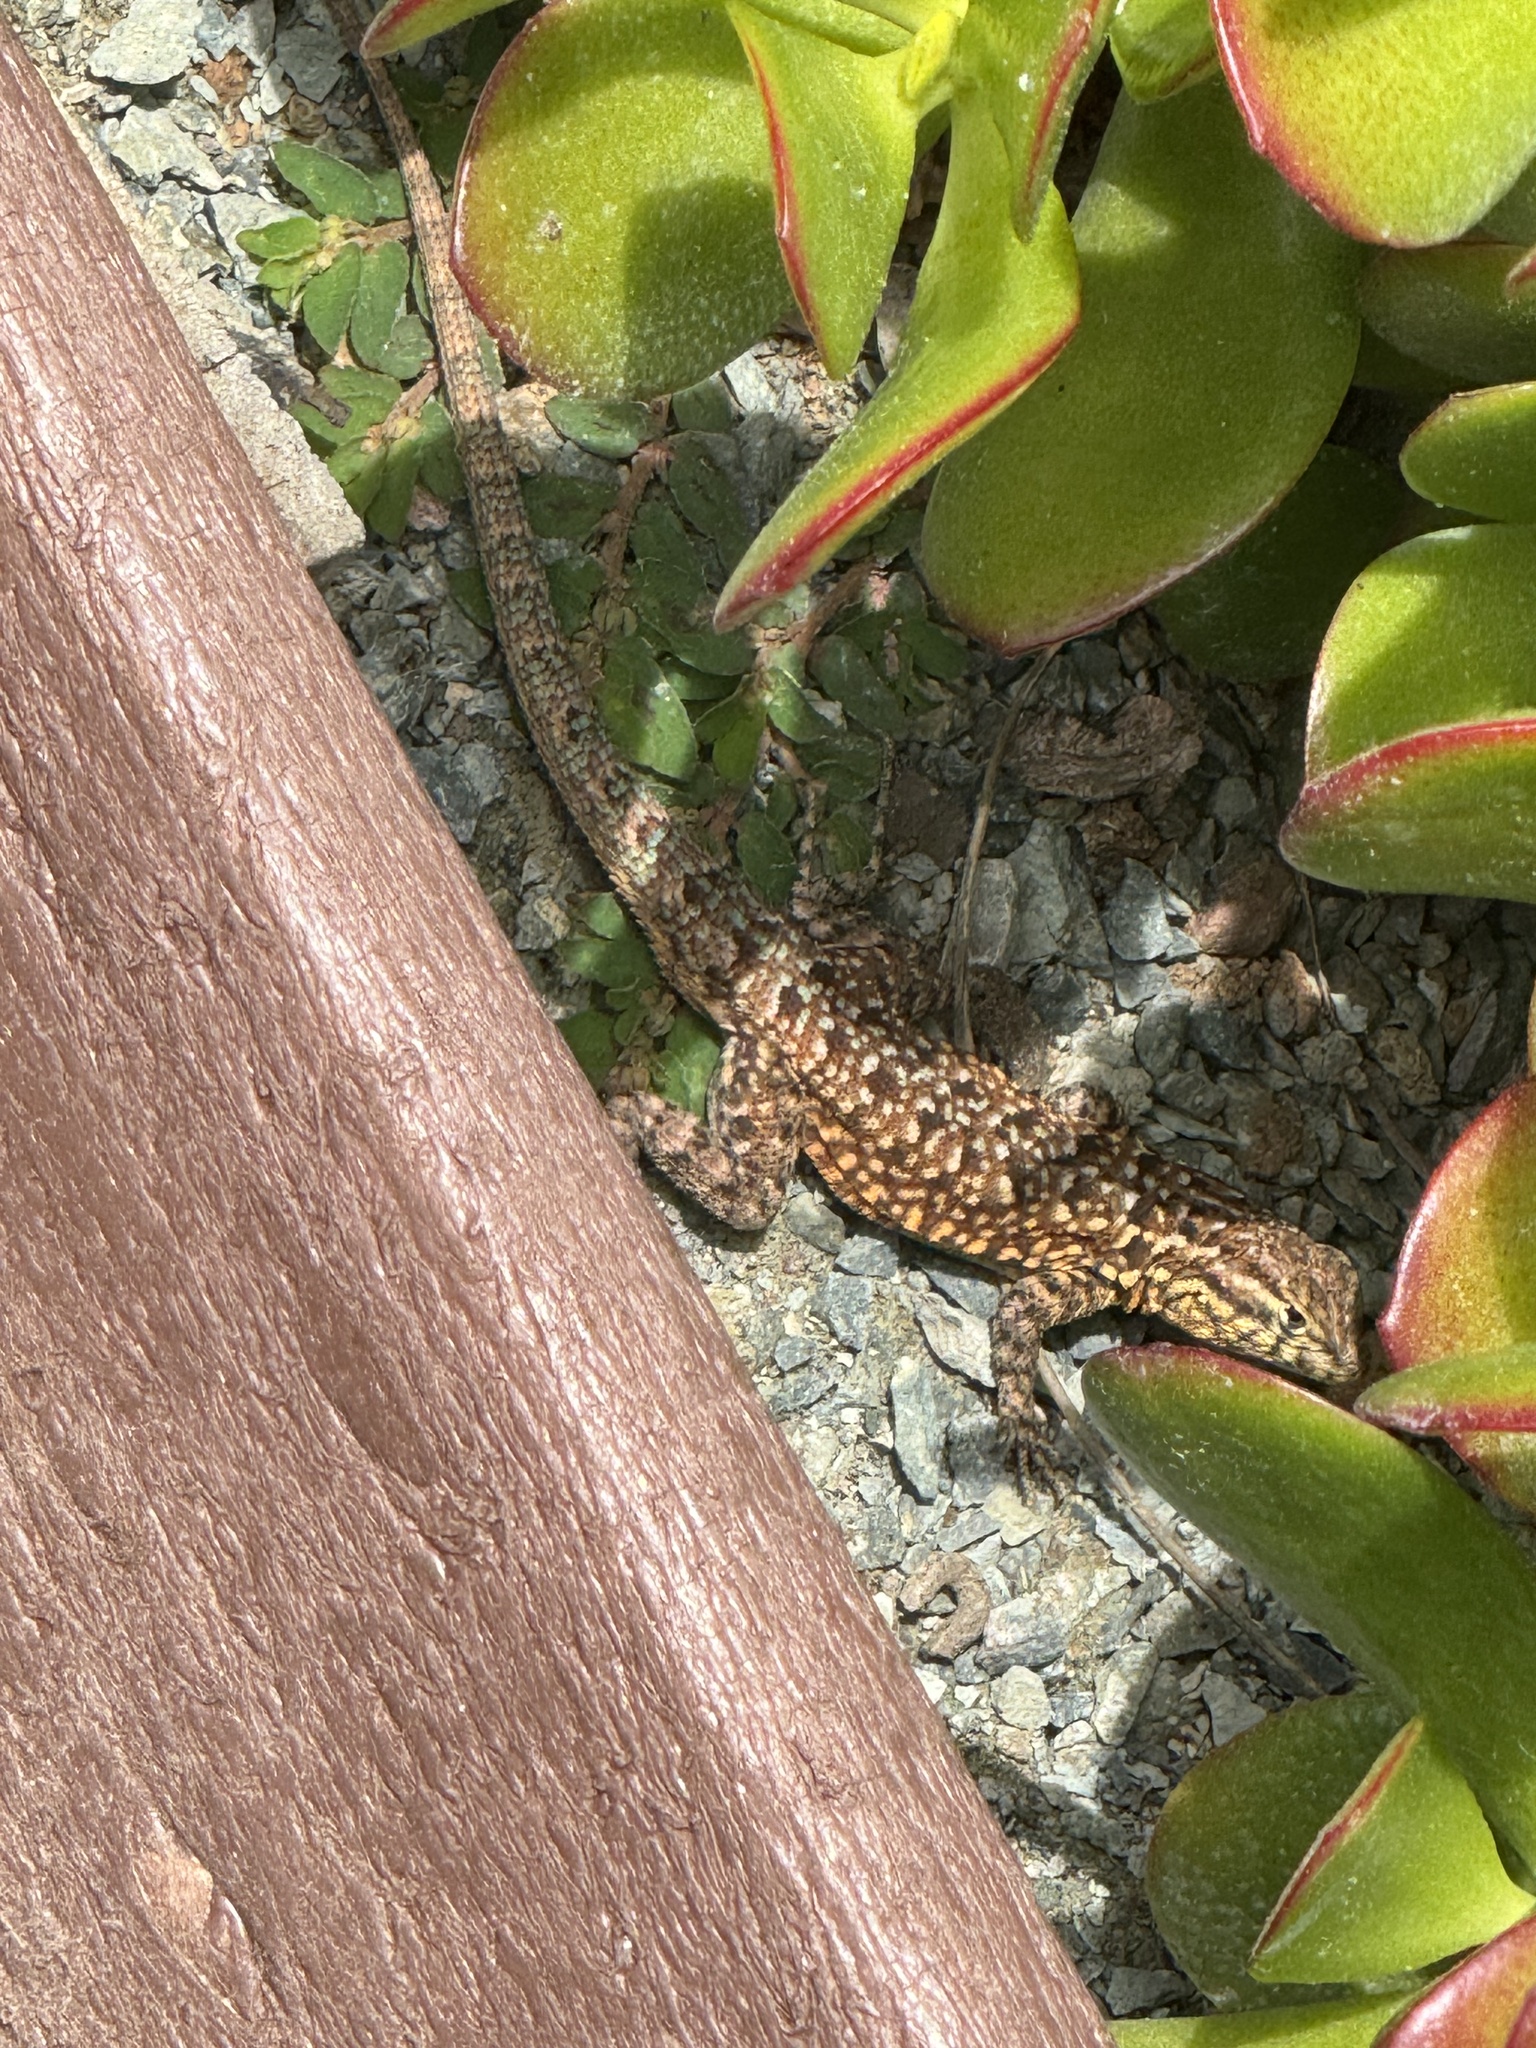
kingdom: Animalia
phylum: Chordata
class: Squamata
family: Phrynosomatidae
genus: Uta
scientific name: Uta stansburiana
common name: Side-blotched lizard
